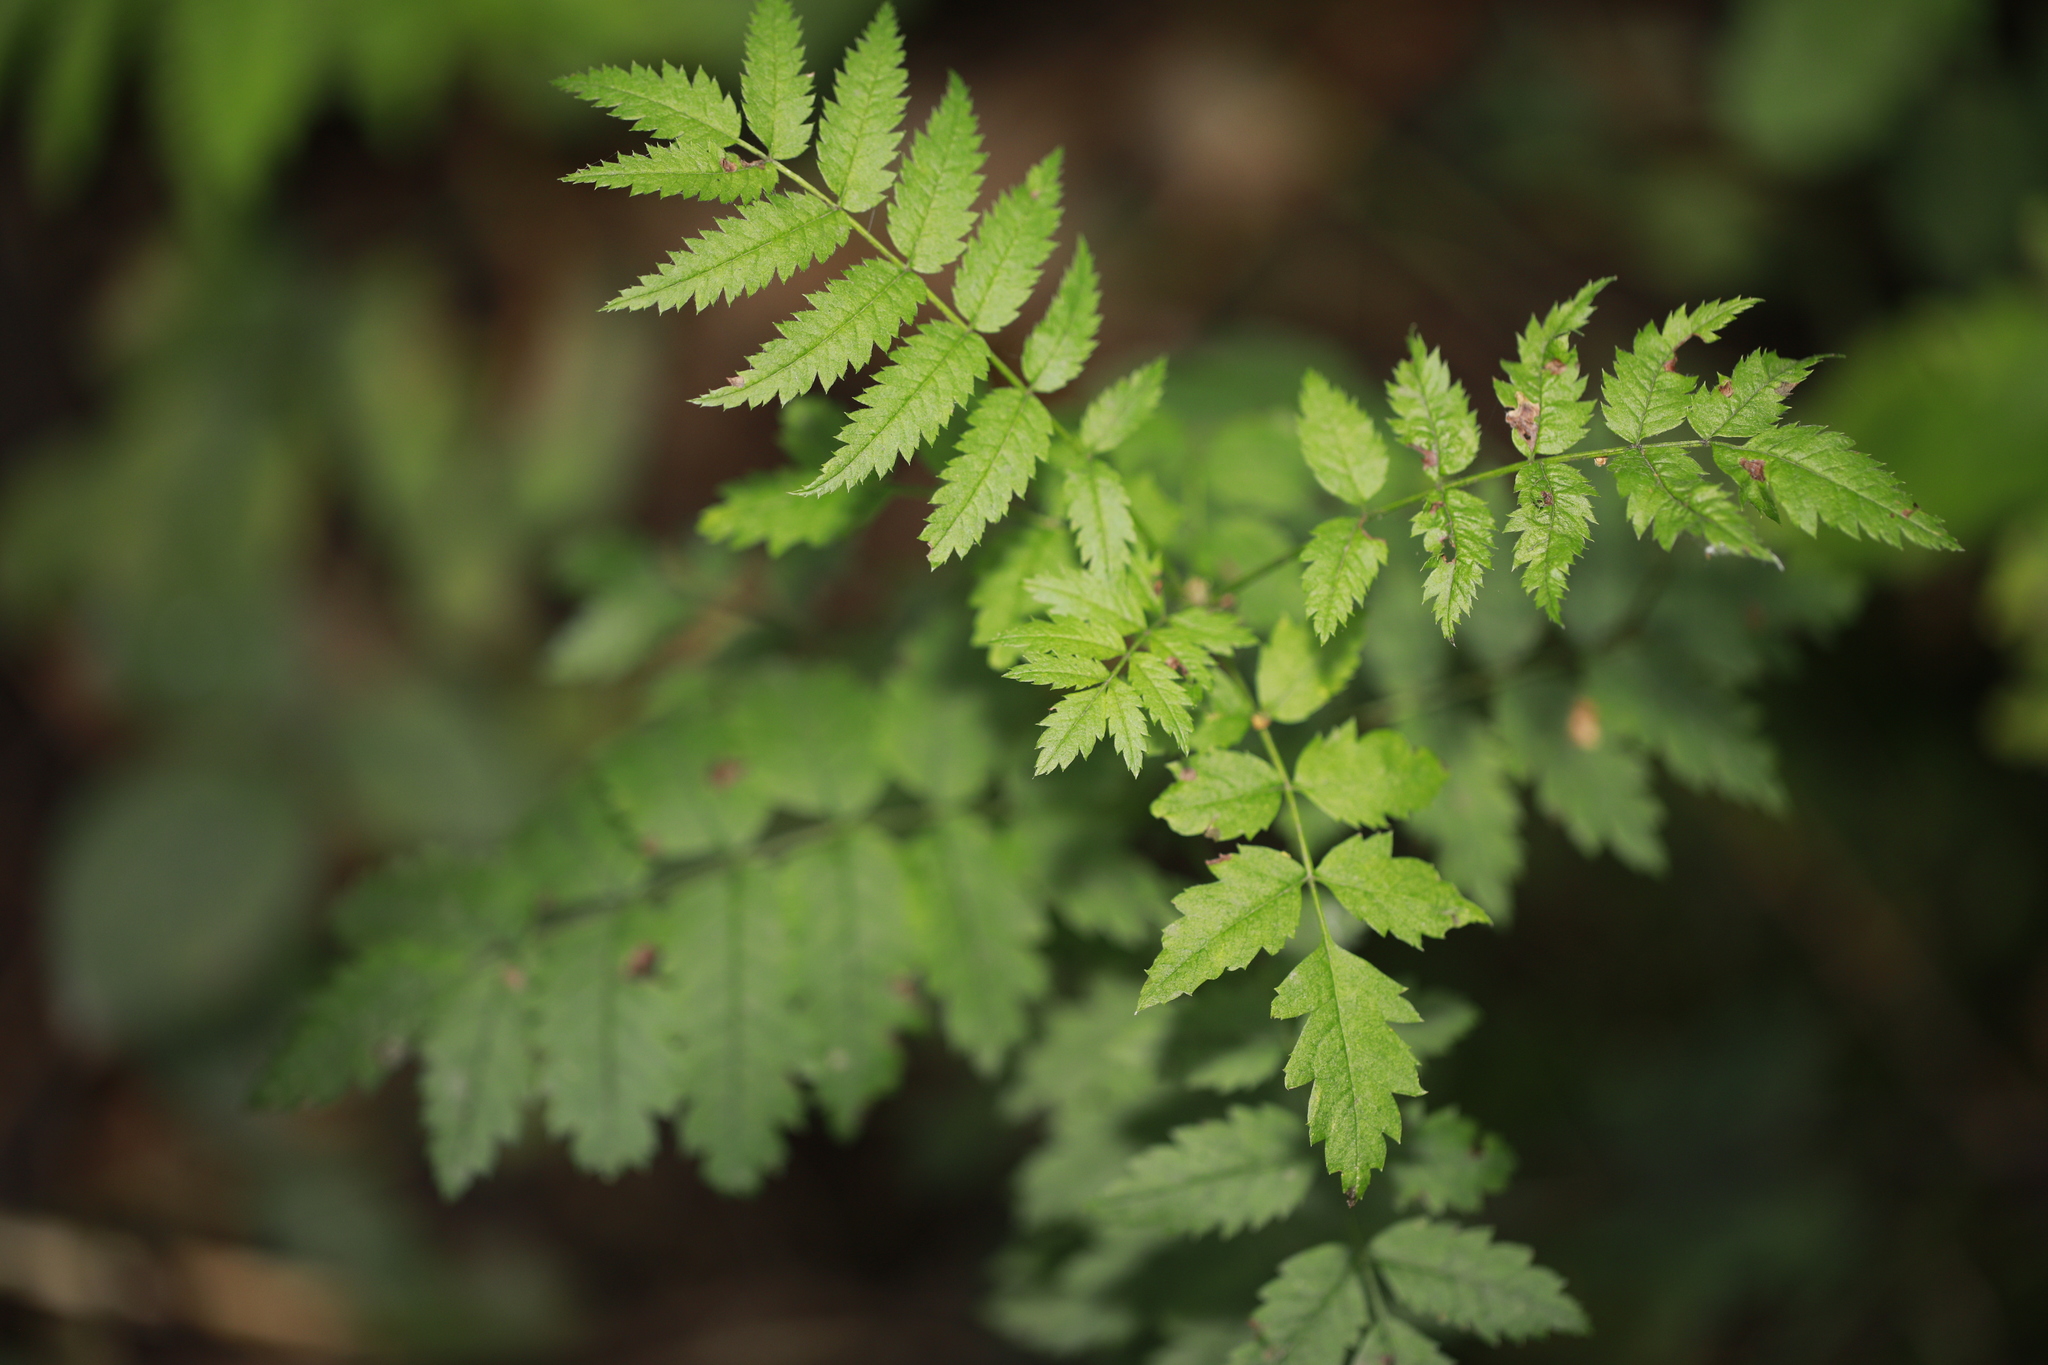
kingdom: Plantae
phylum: Tracheophyta
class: Magnoliopsida
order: Rosales
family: Rosaceae
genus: Sorbus
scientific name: Sorbus aucuparia
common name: Rowan
